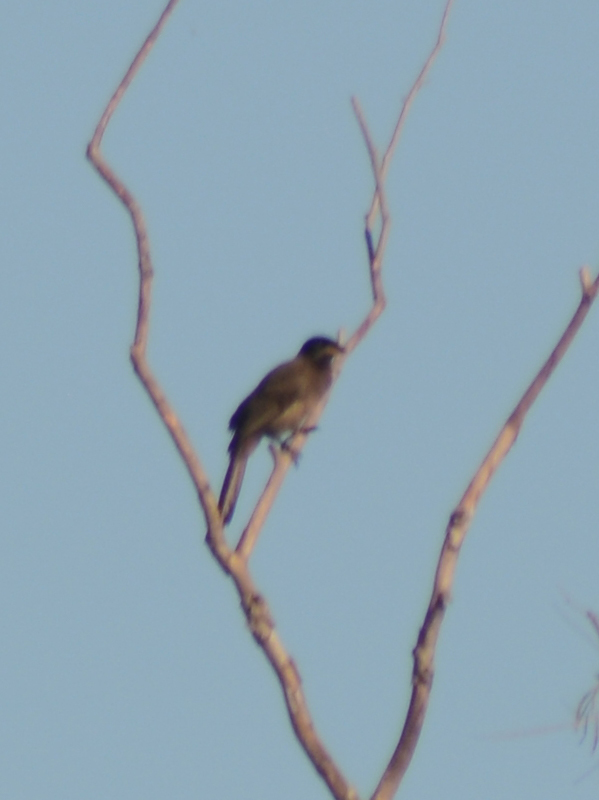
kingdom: Animalia
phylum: Chordata
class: Aves
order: Passeriformes
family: Corvidae
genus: Psilorhinus
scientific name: Psilorhinus morio
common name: Brown jay
